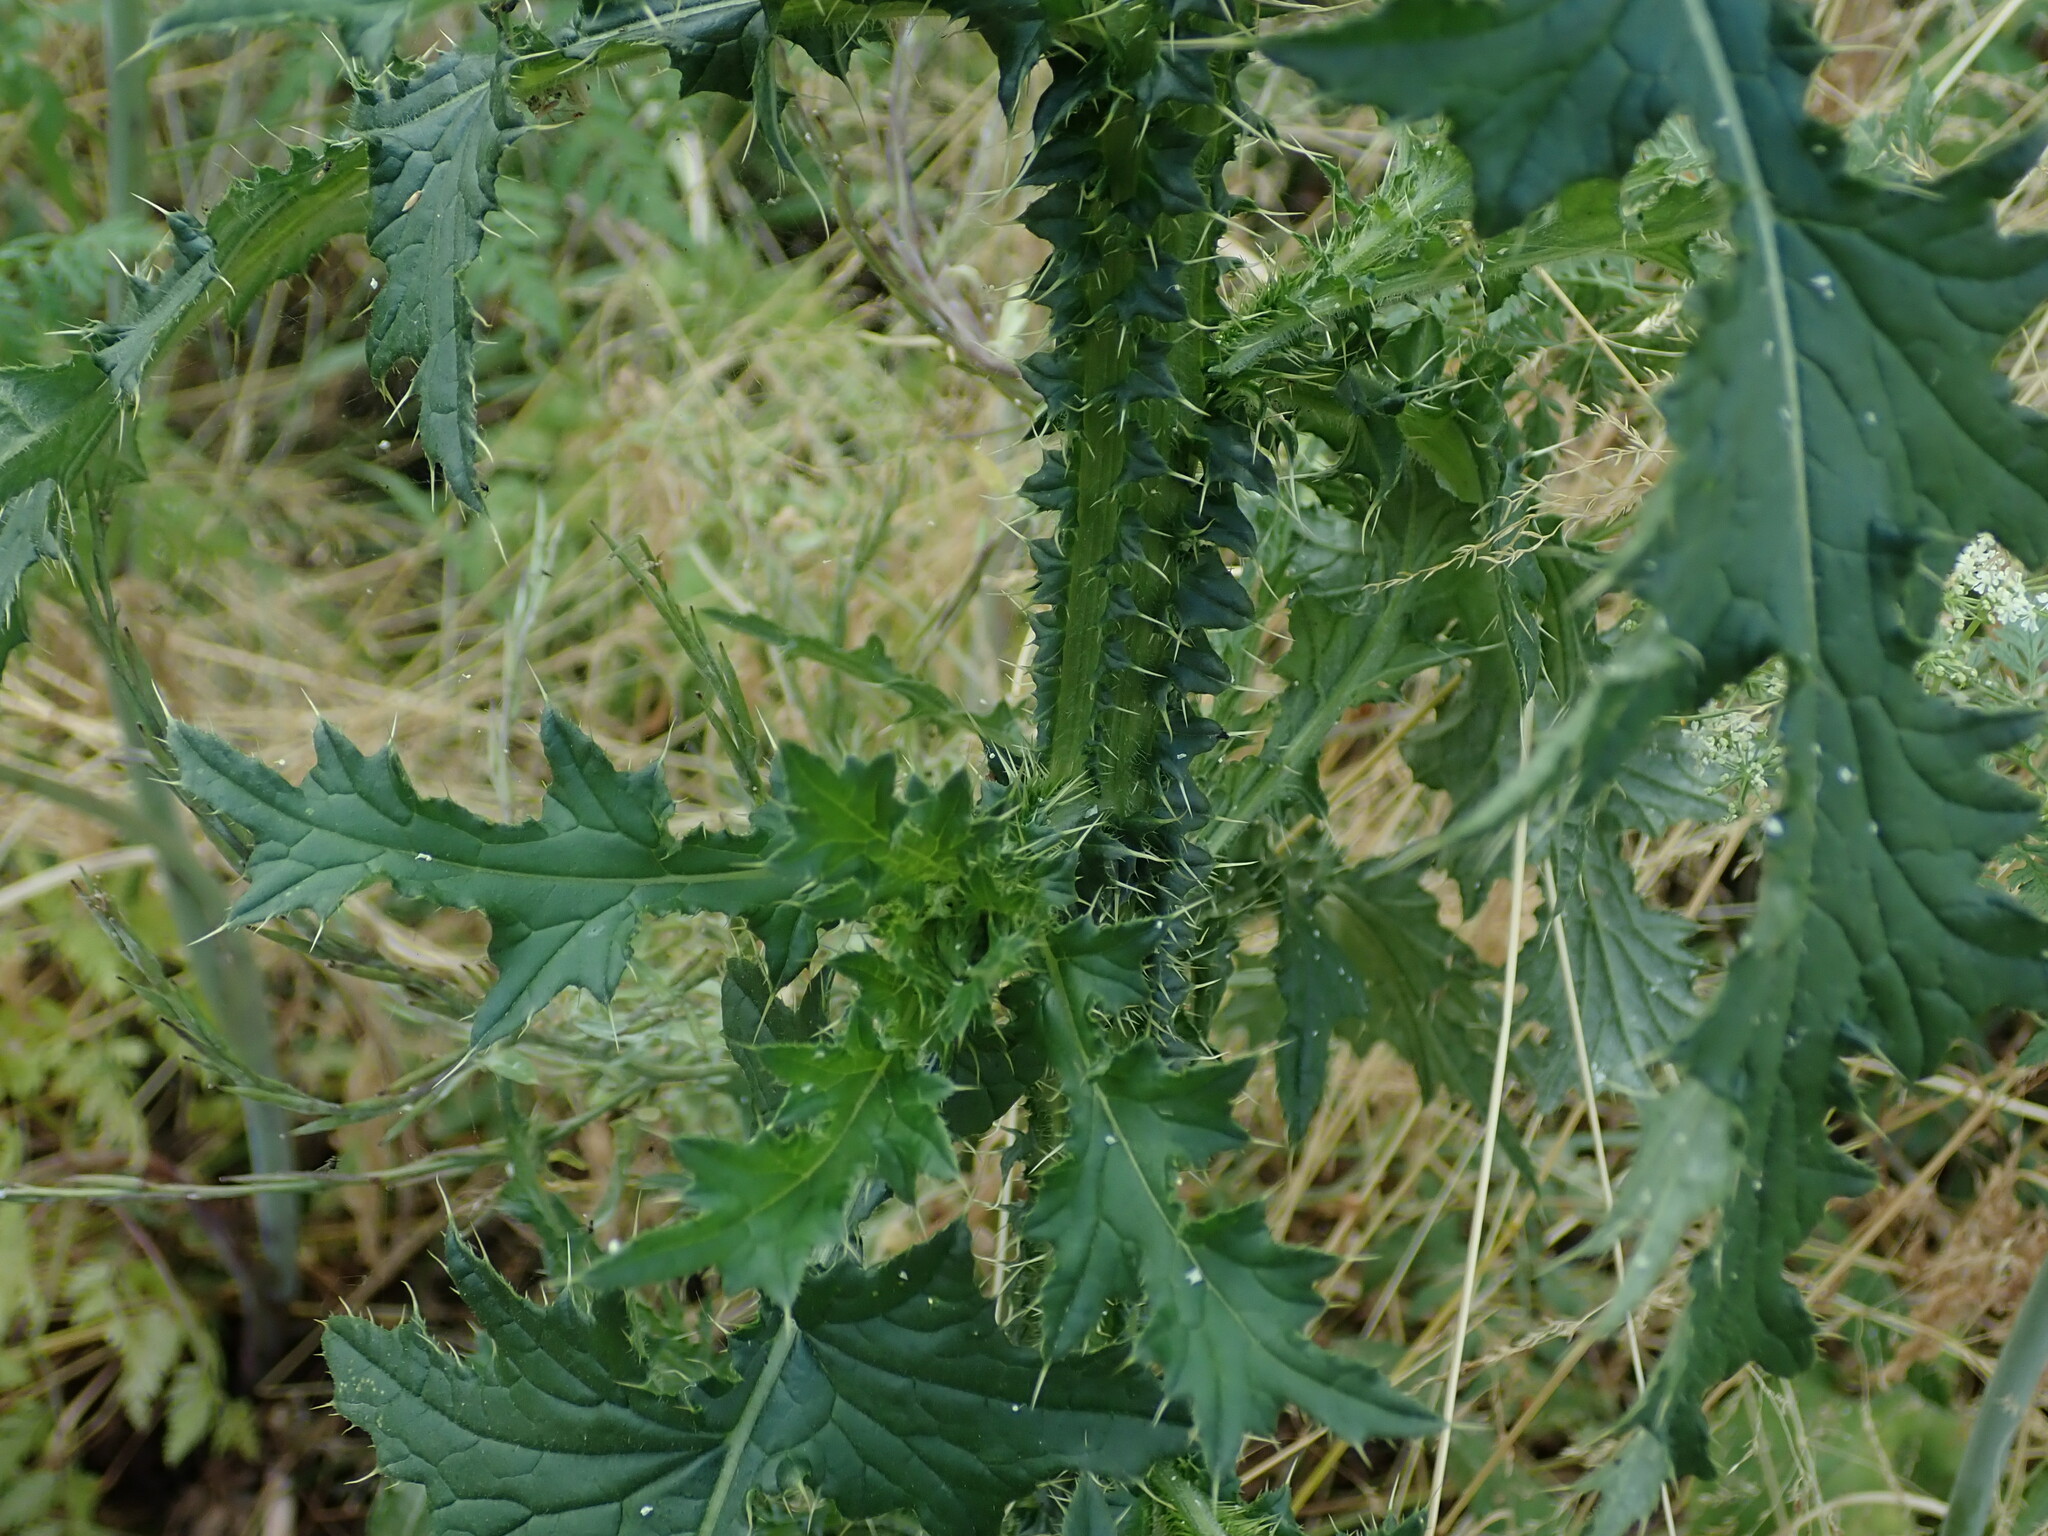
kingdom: Plantae
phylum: Tracheophyta
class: Magnoliopsida
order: Asterales
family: Asteraceae
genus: Carduus
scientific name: Carduus crispus
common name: Welted thistle
